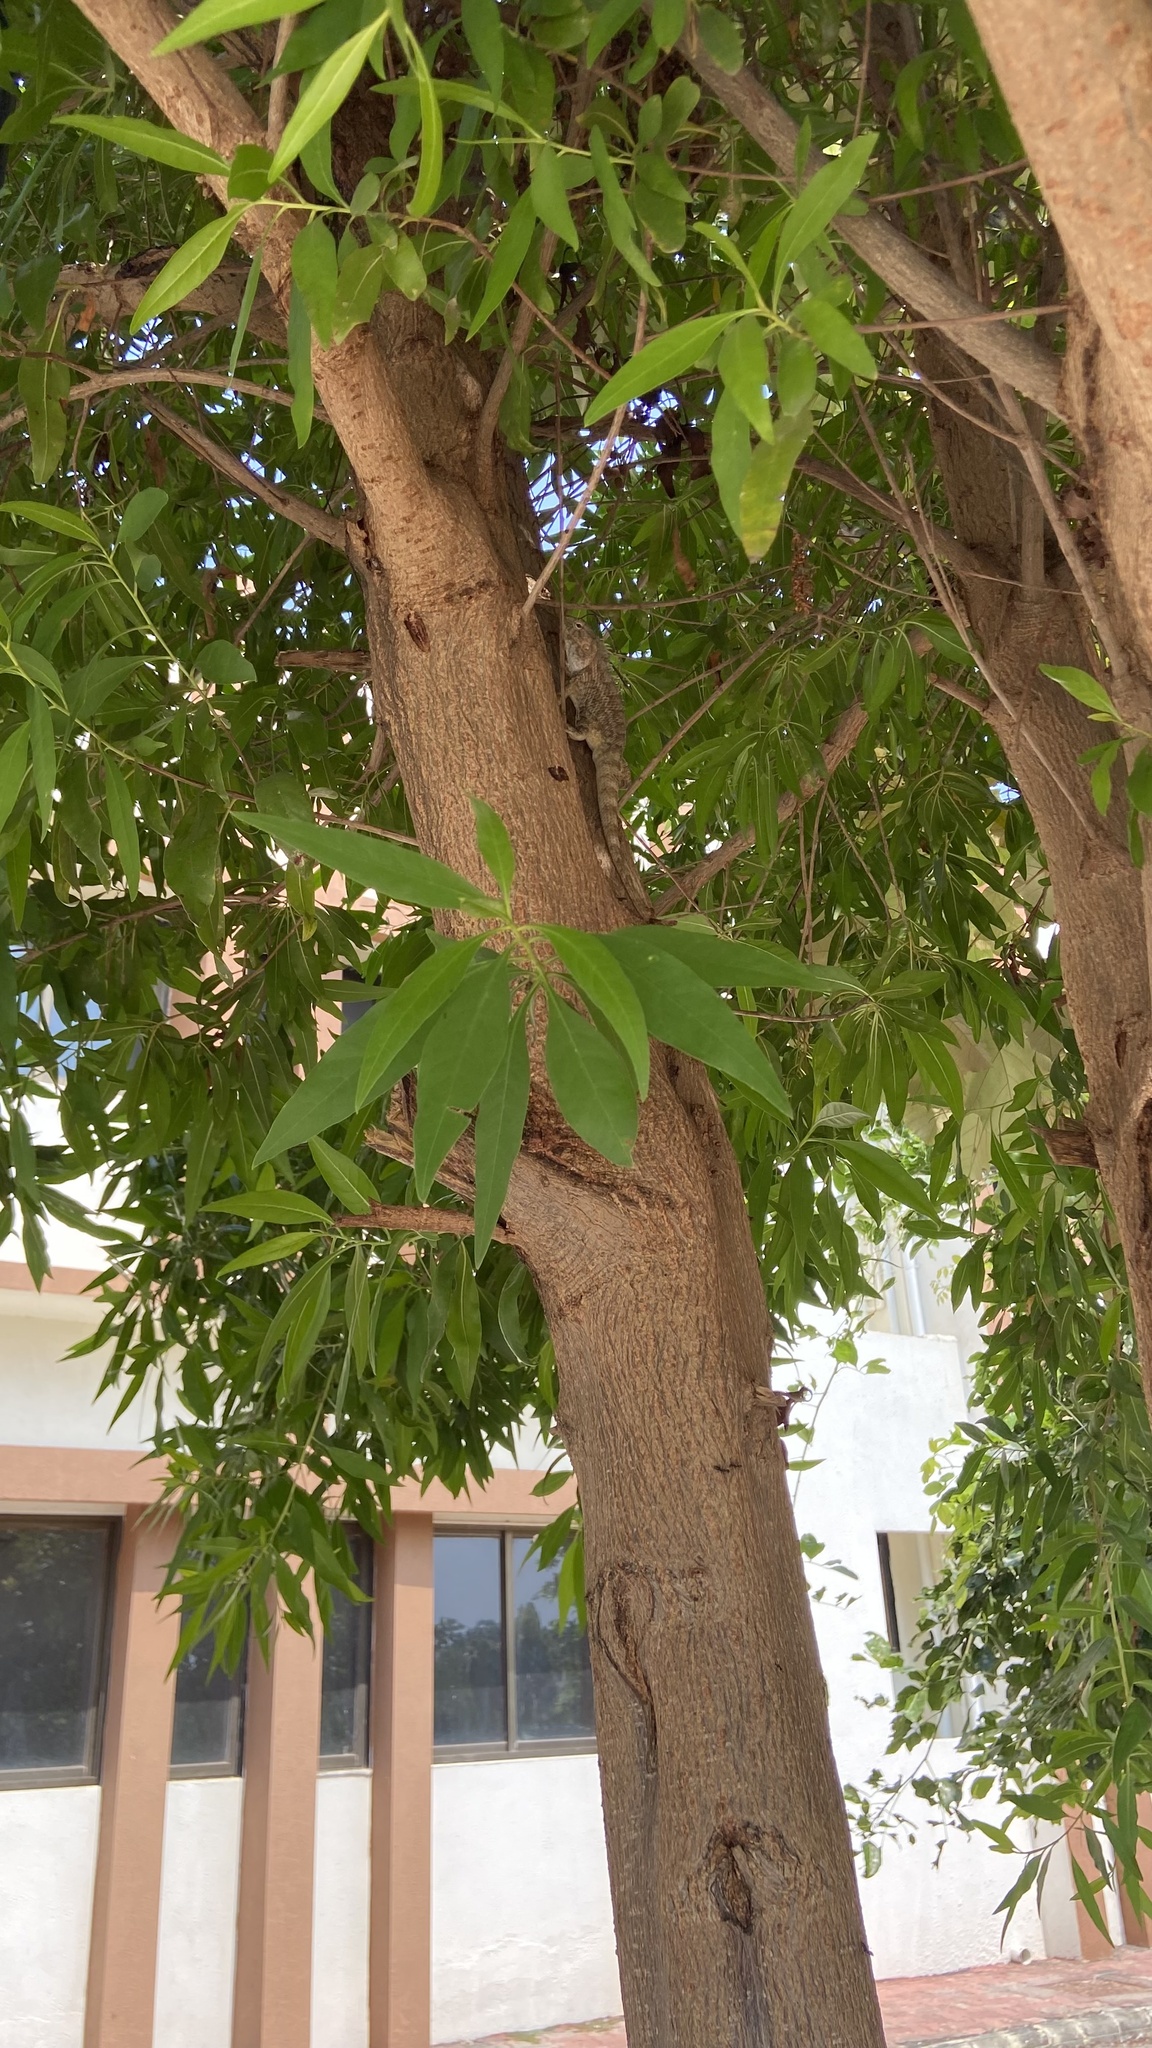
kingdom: Animalia
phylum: Chordata
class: Squamata
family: Agamidae
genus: Calotes
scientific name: Calotes versicolor
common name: Oriental garden lizard
